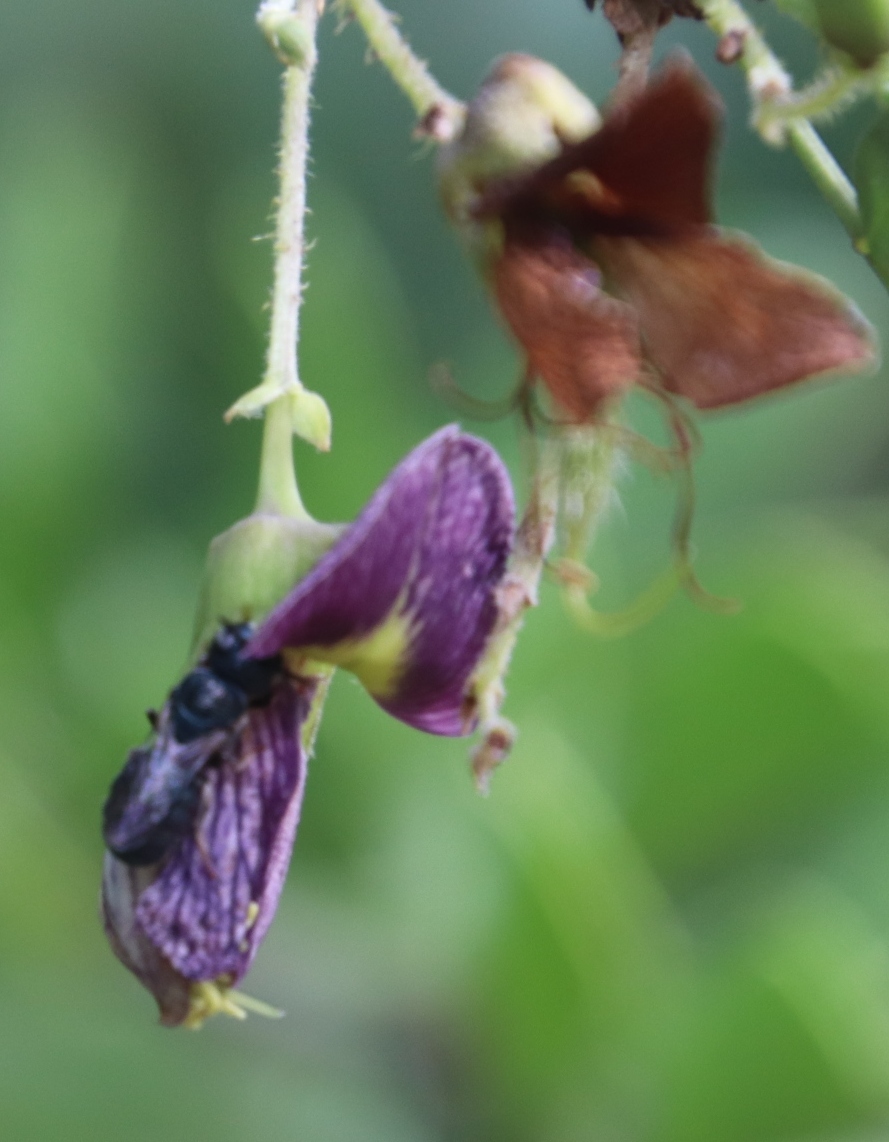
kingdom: Plantae
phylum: Tracheophyta
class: Magnoliopsida
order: Fabales
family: Fabaceae
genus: Ormocarpum
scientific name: Ormocarpum trichocarpum
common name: Caterpillar bush
